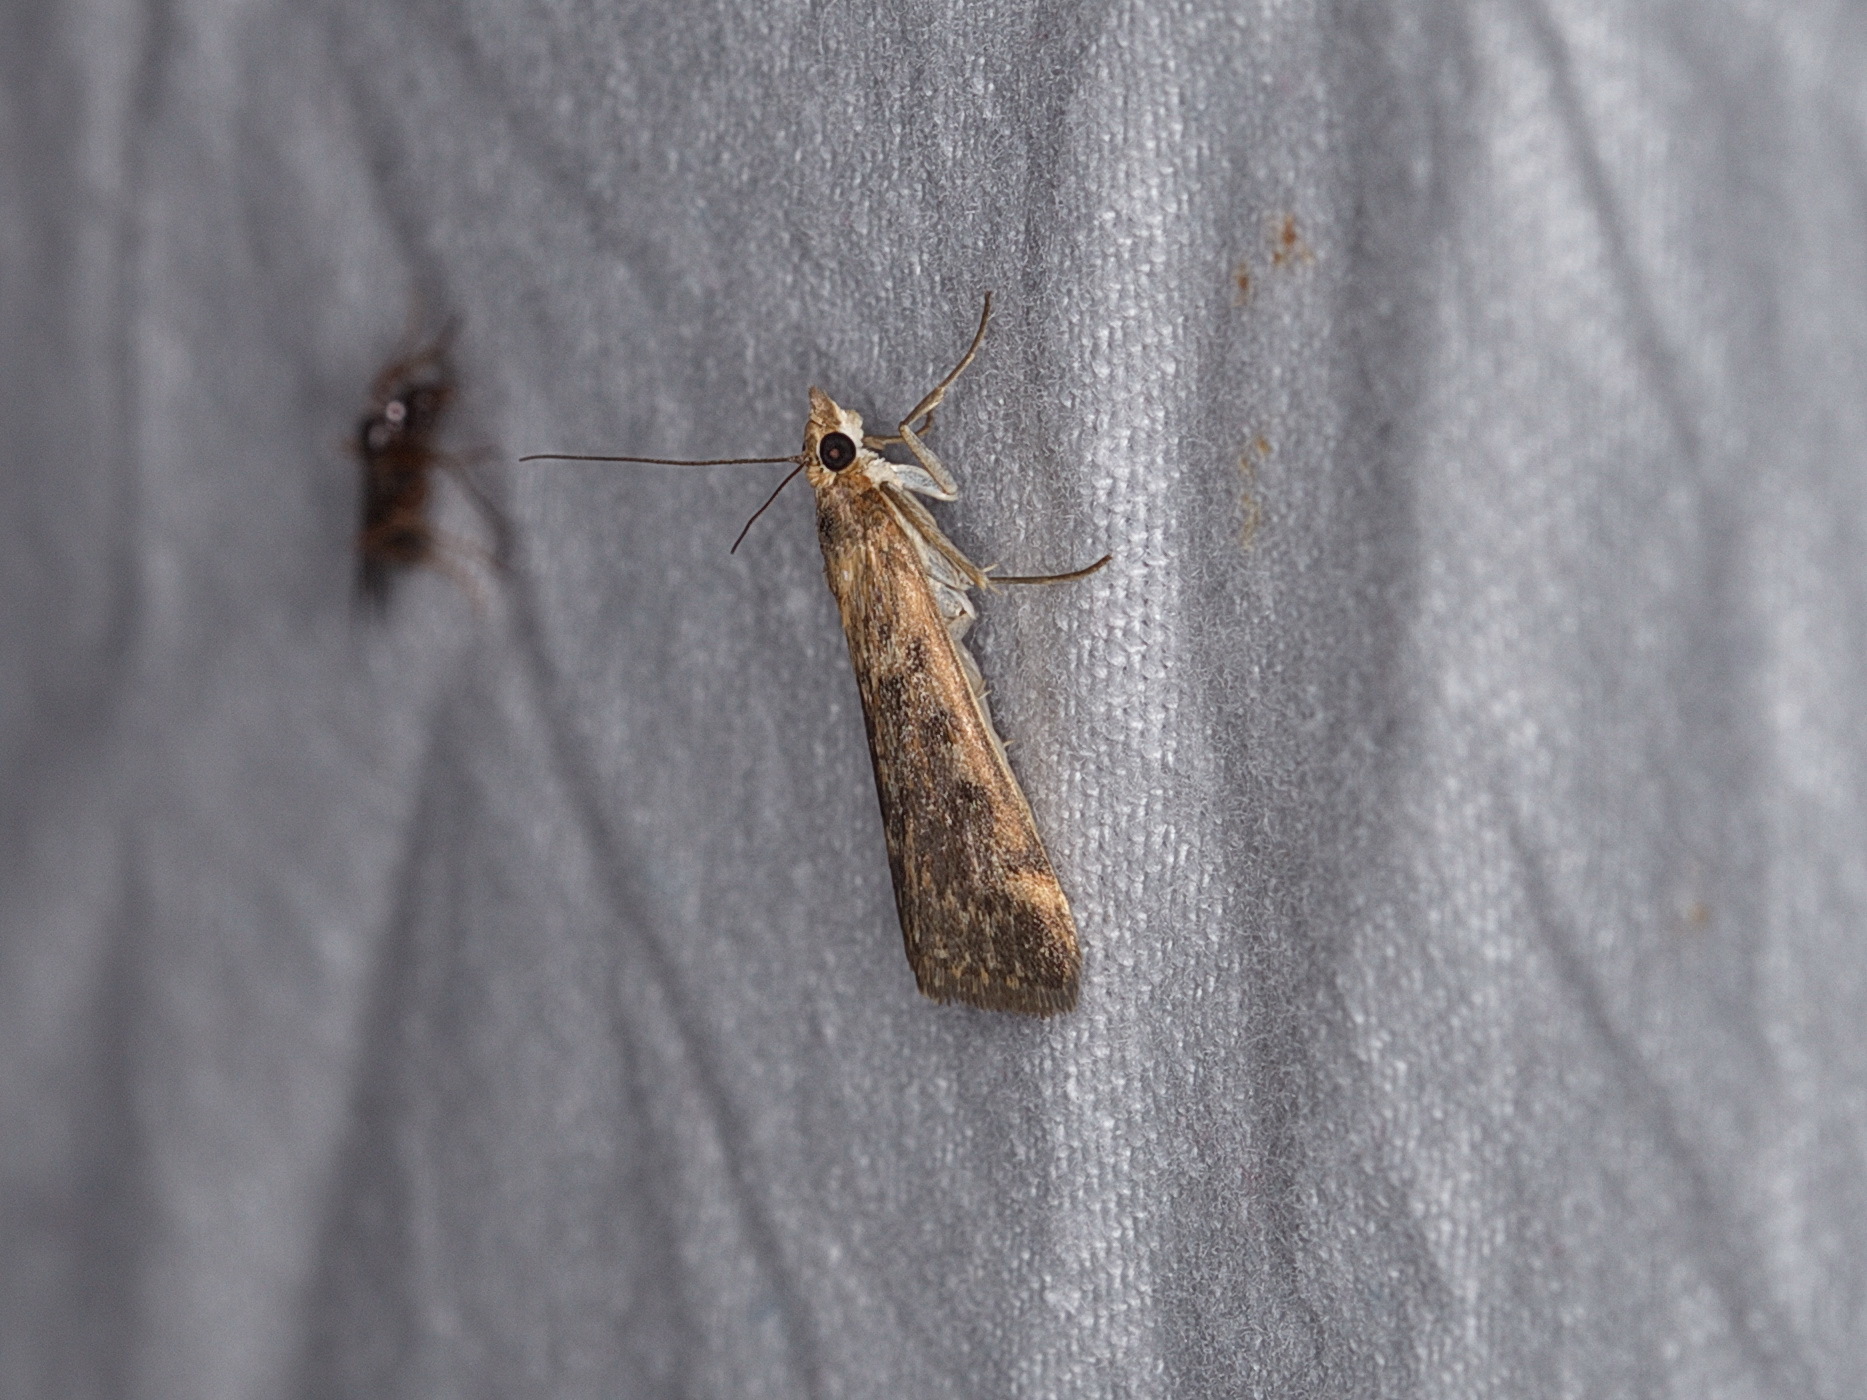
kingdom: Animalia
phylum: Arthropoda
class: Insecta
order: Lepidoptera
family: Crambidae
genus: Achyra
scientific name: Achyra affinitalis
